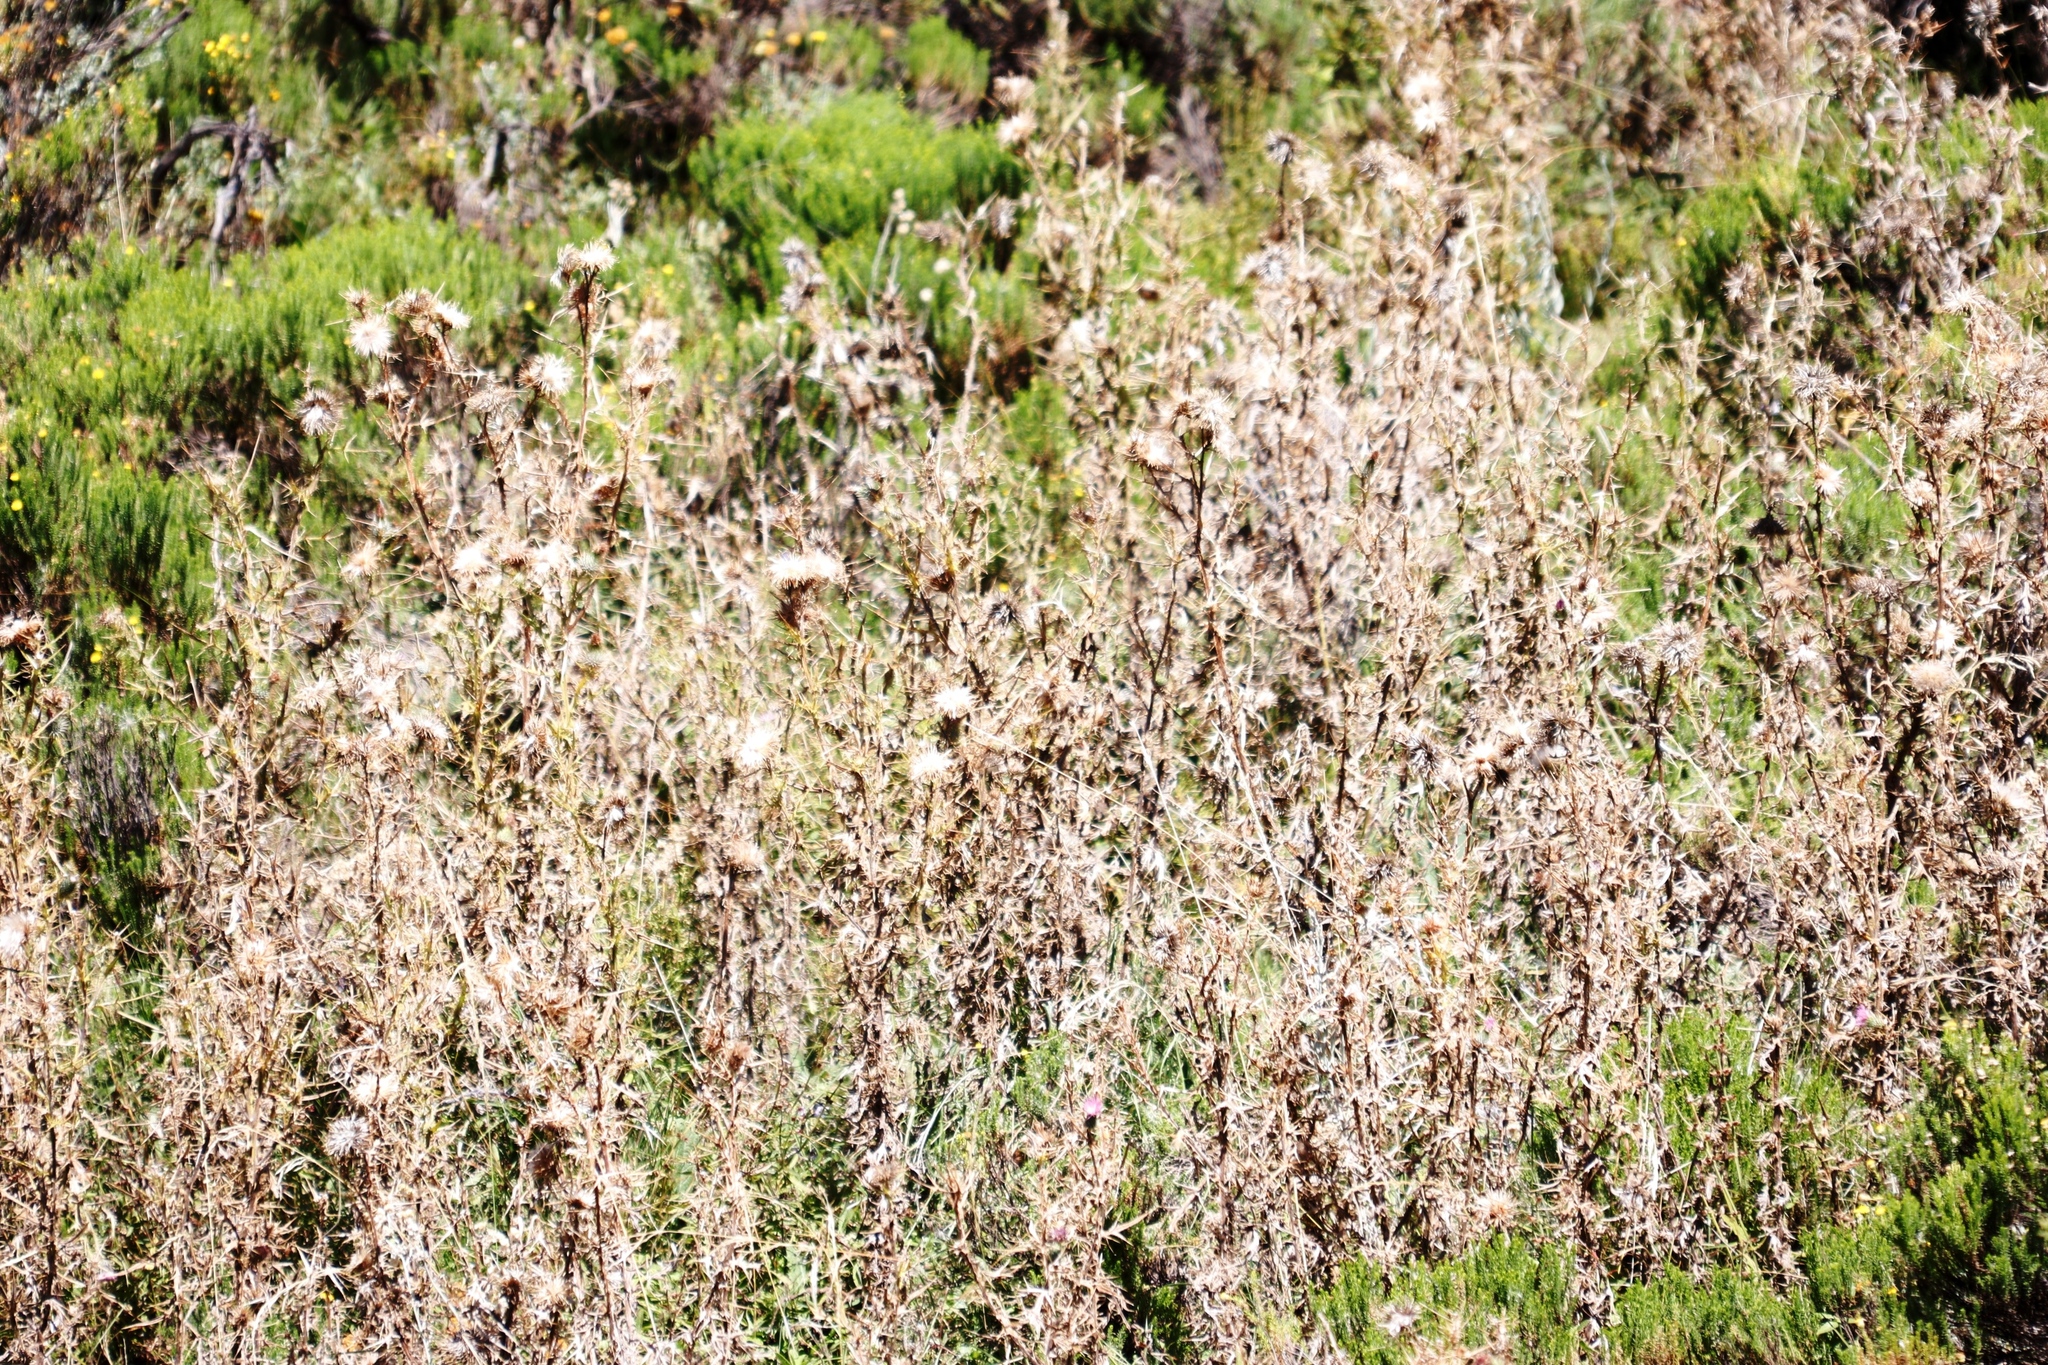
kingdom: Plantae
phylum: Tracheophyta
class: Magnoliopsida
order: Asterales
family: Asteraceae
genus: Cirsium
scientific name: Cirsium vulgare
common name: Bull thistle
